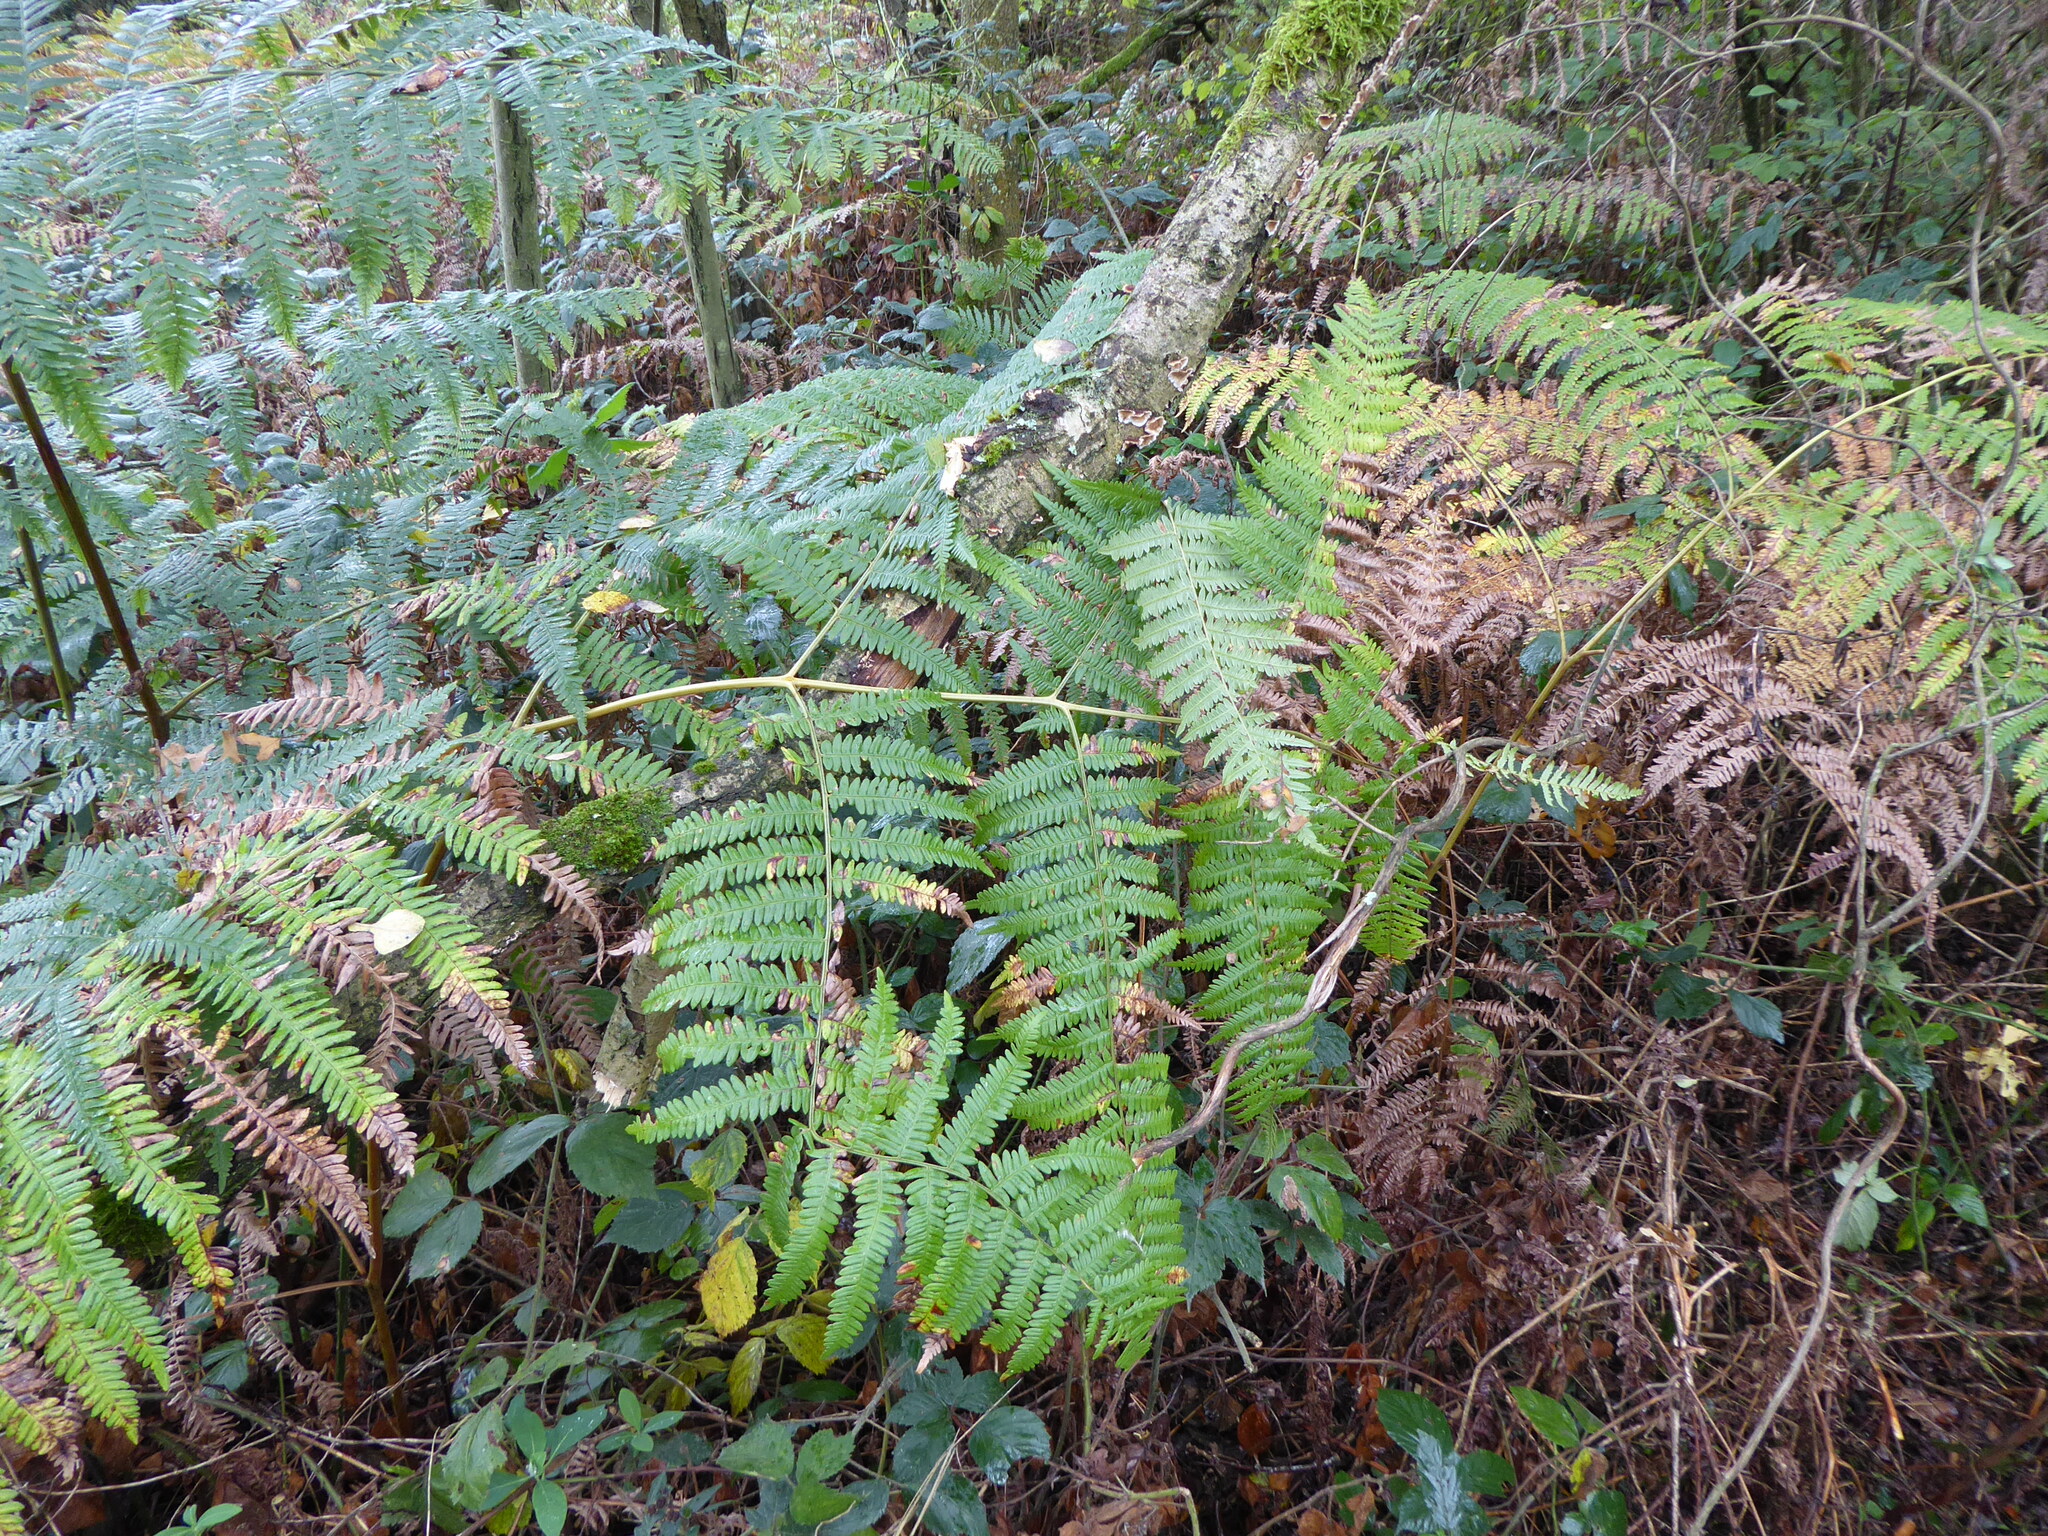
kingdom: Plantae
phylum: Tracheophyta
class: Polypodiopsida
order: Polypodiales
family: Dennstaedtiaceae
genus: Pteridium
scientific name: Pteridium aquilinum
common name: Bracken
